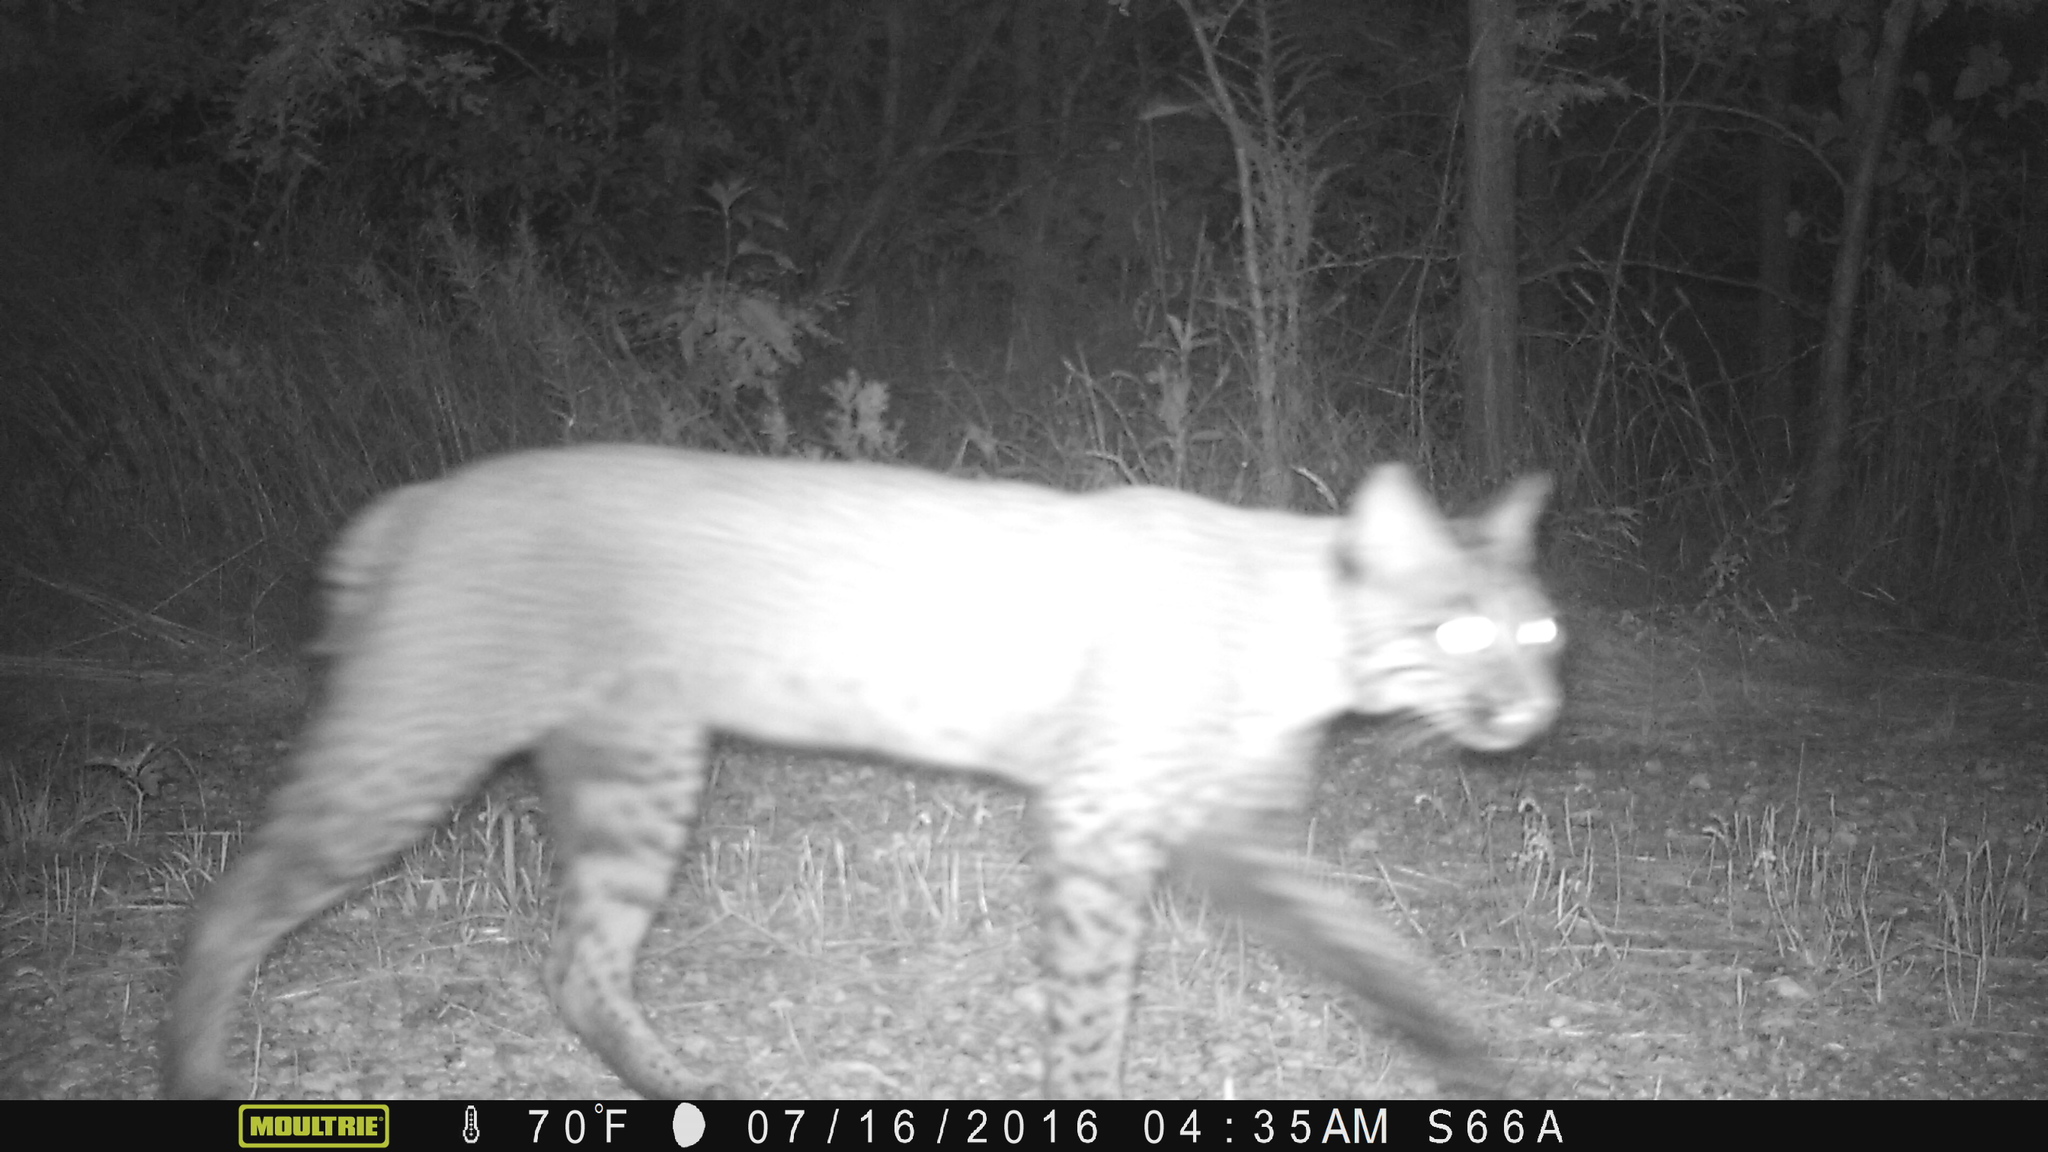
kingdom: Animalia
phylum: Chordata
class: Mammalia
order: Carnivora
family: Felidae
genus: Lynx
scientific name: Lynx rufus
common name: Bobcat
